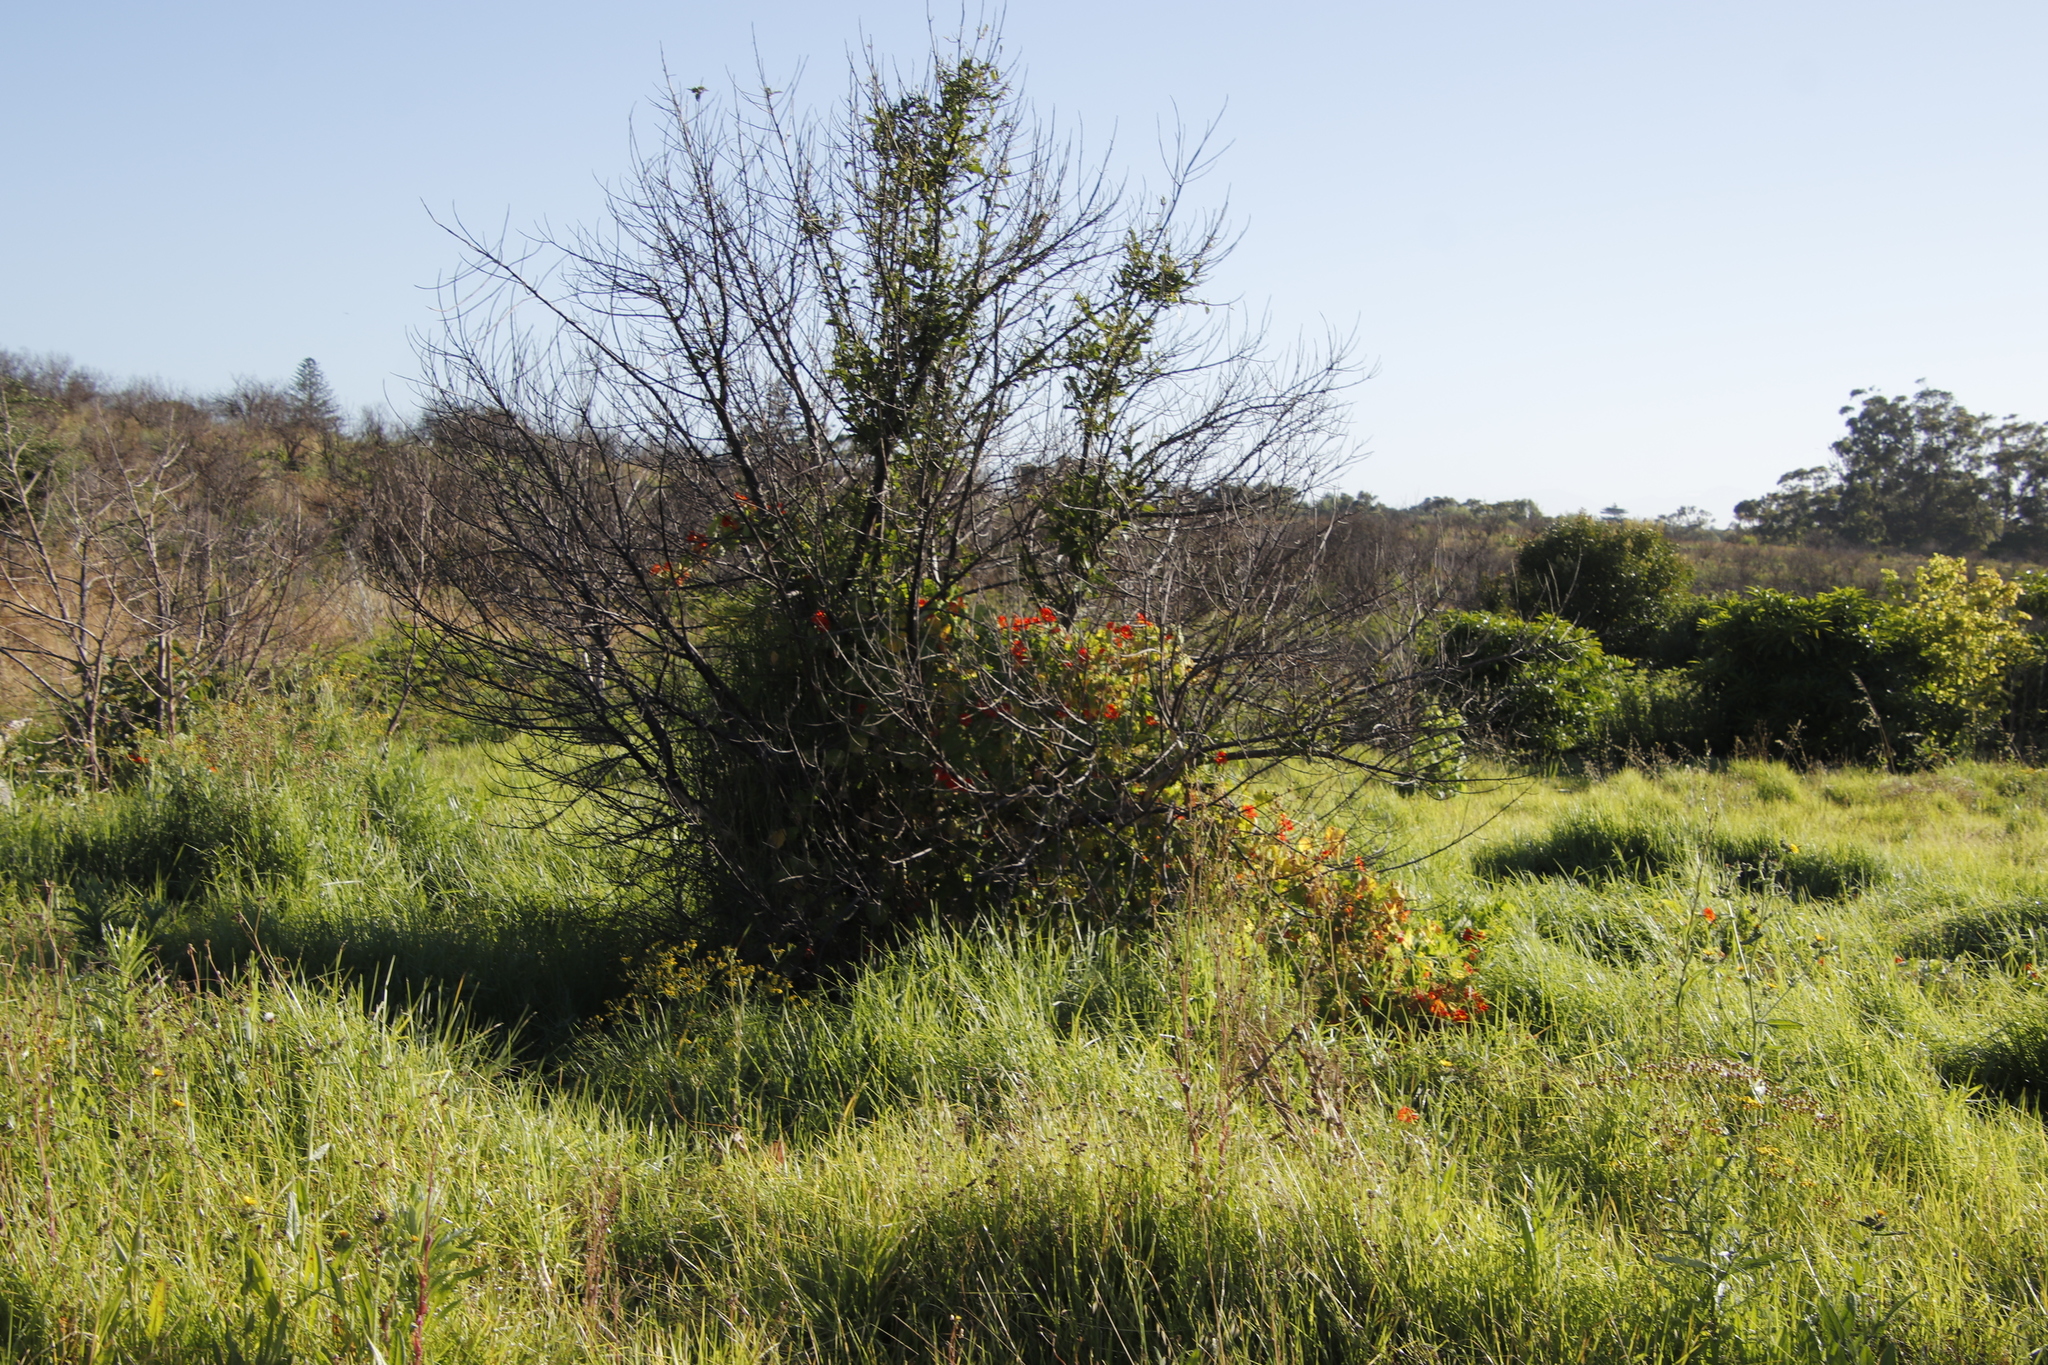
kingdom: Plantae
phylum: Tracheophyta
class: Magnoliopsida
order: Brassicales
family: Tropaeolaceae
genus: Tropaeolum
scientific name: Tropaeolum majus
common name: Nasturtium
